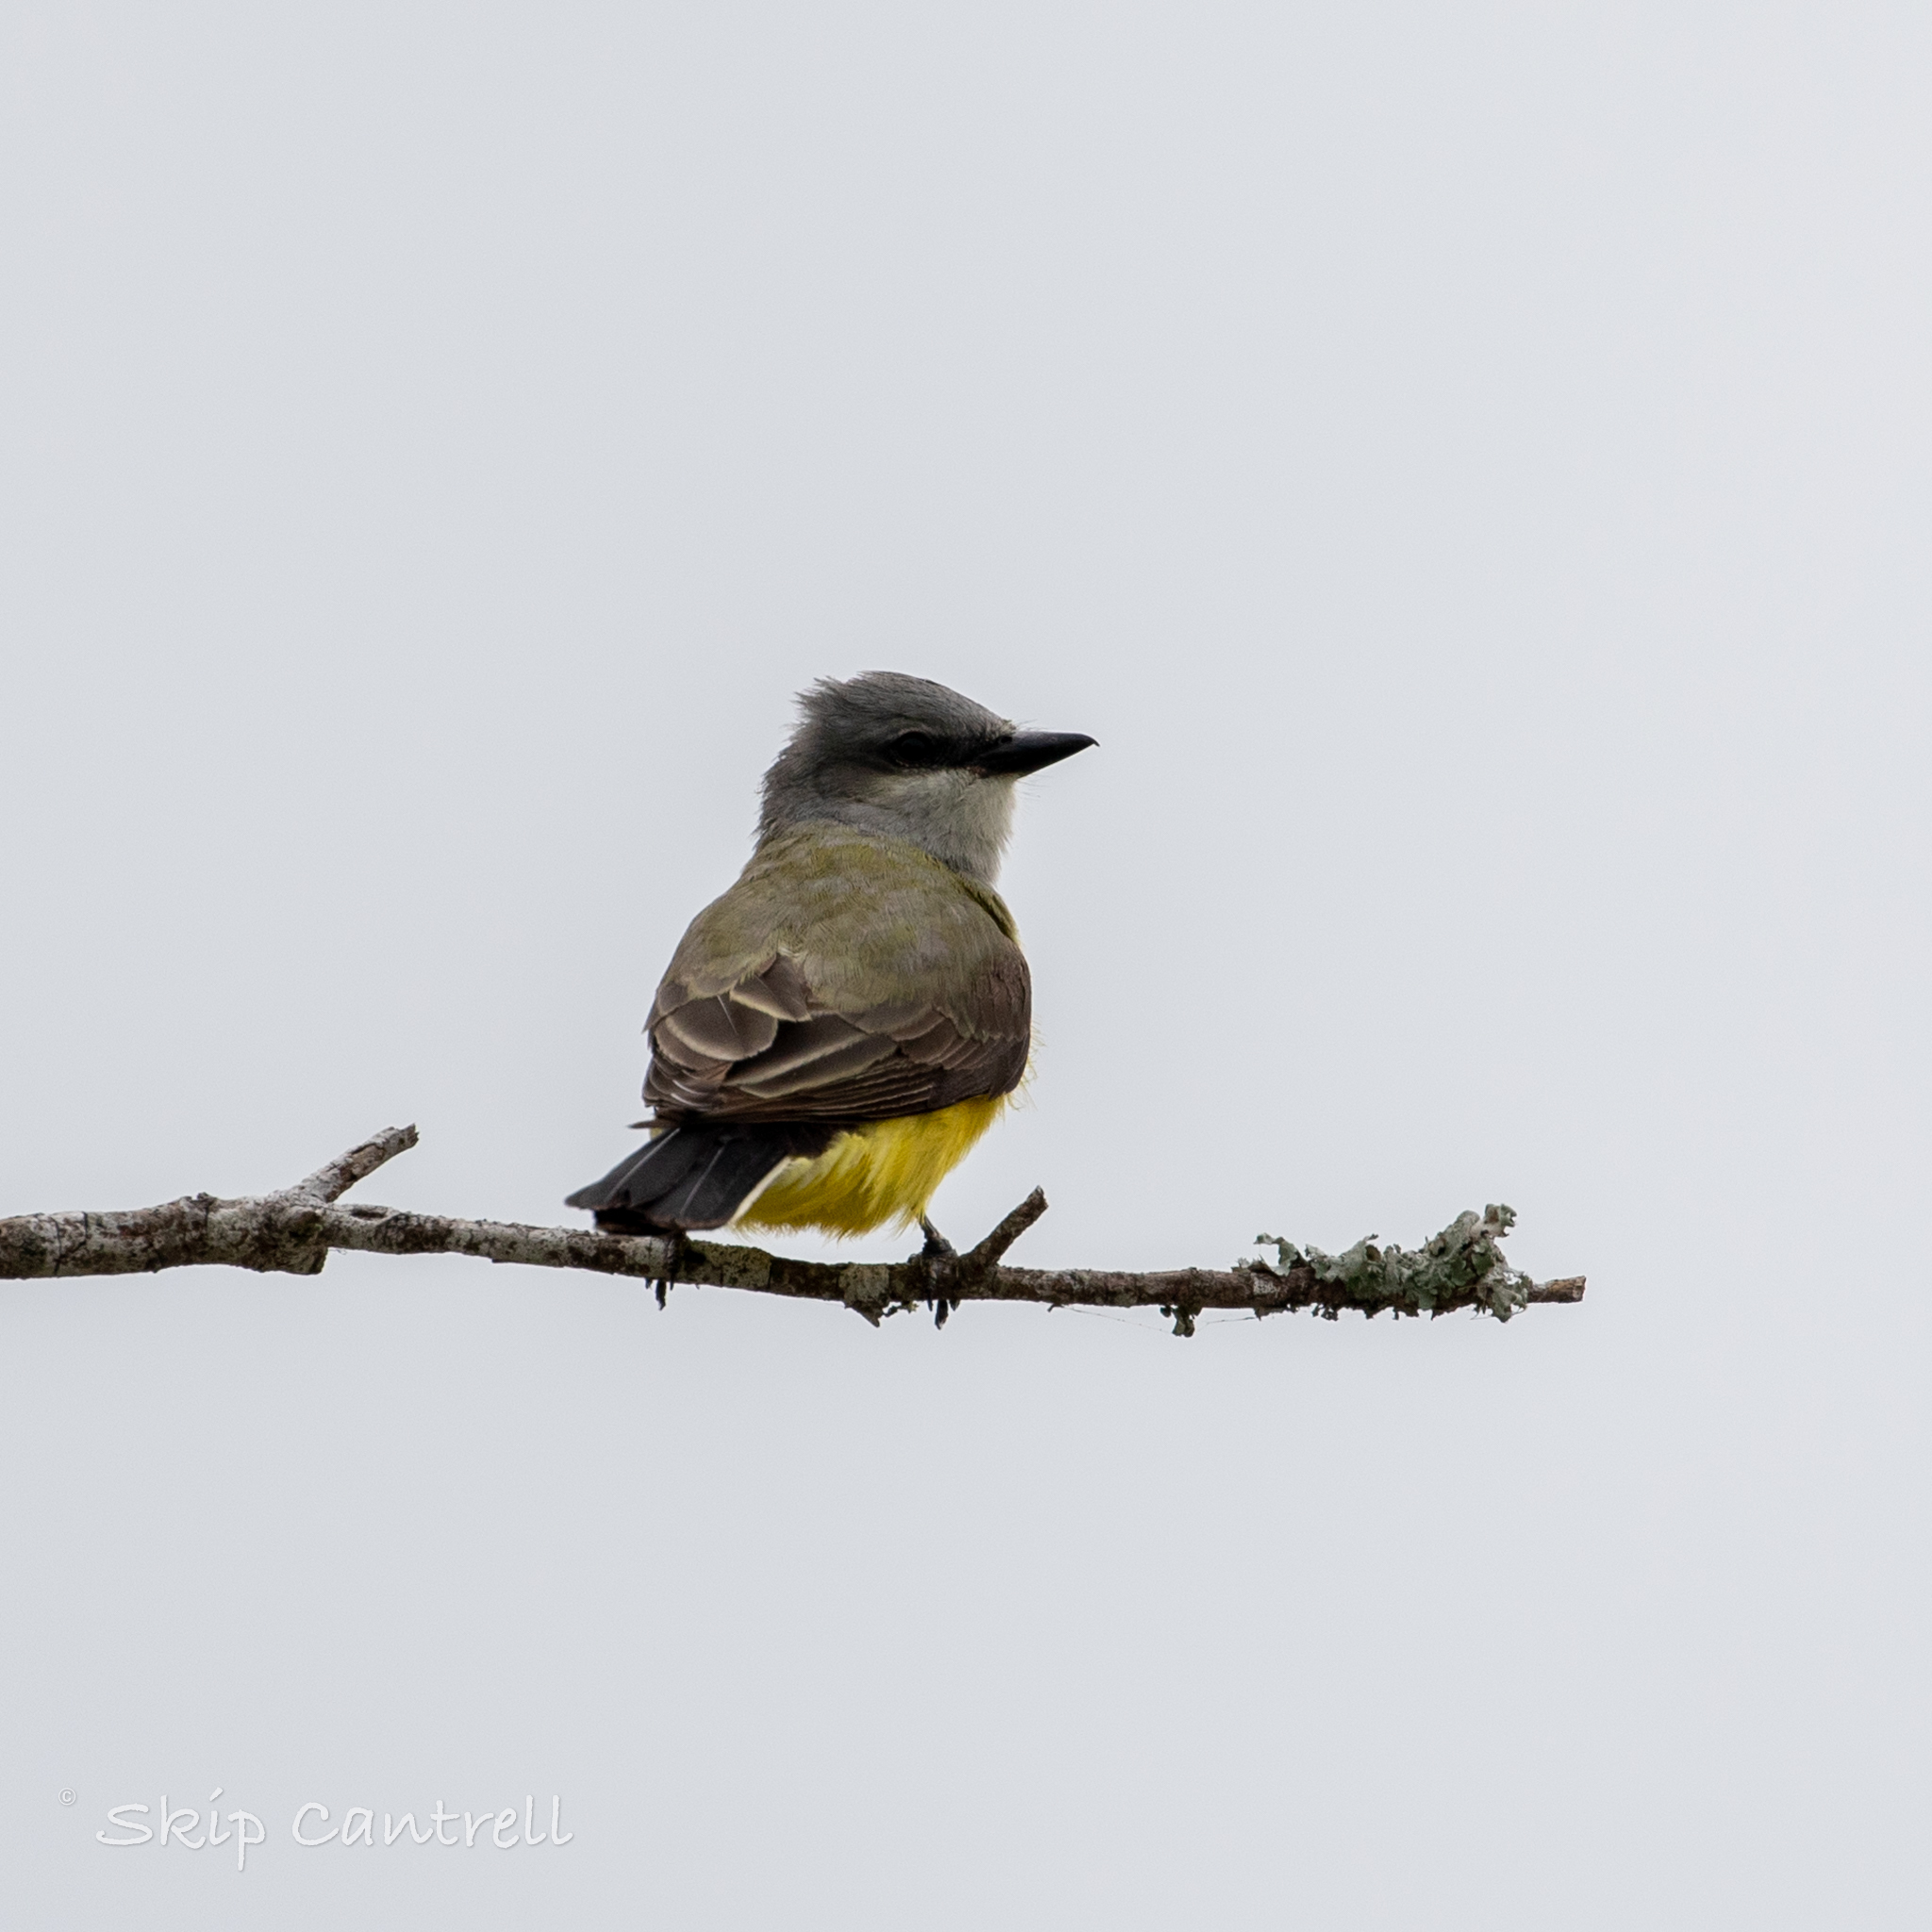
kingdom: Animalia
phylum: Chordata
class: Aves
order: Passeriformes
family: Tyrannidae
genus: Tyrannus
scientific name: Tyrannus verticalis
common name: Western kingbird
